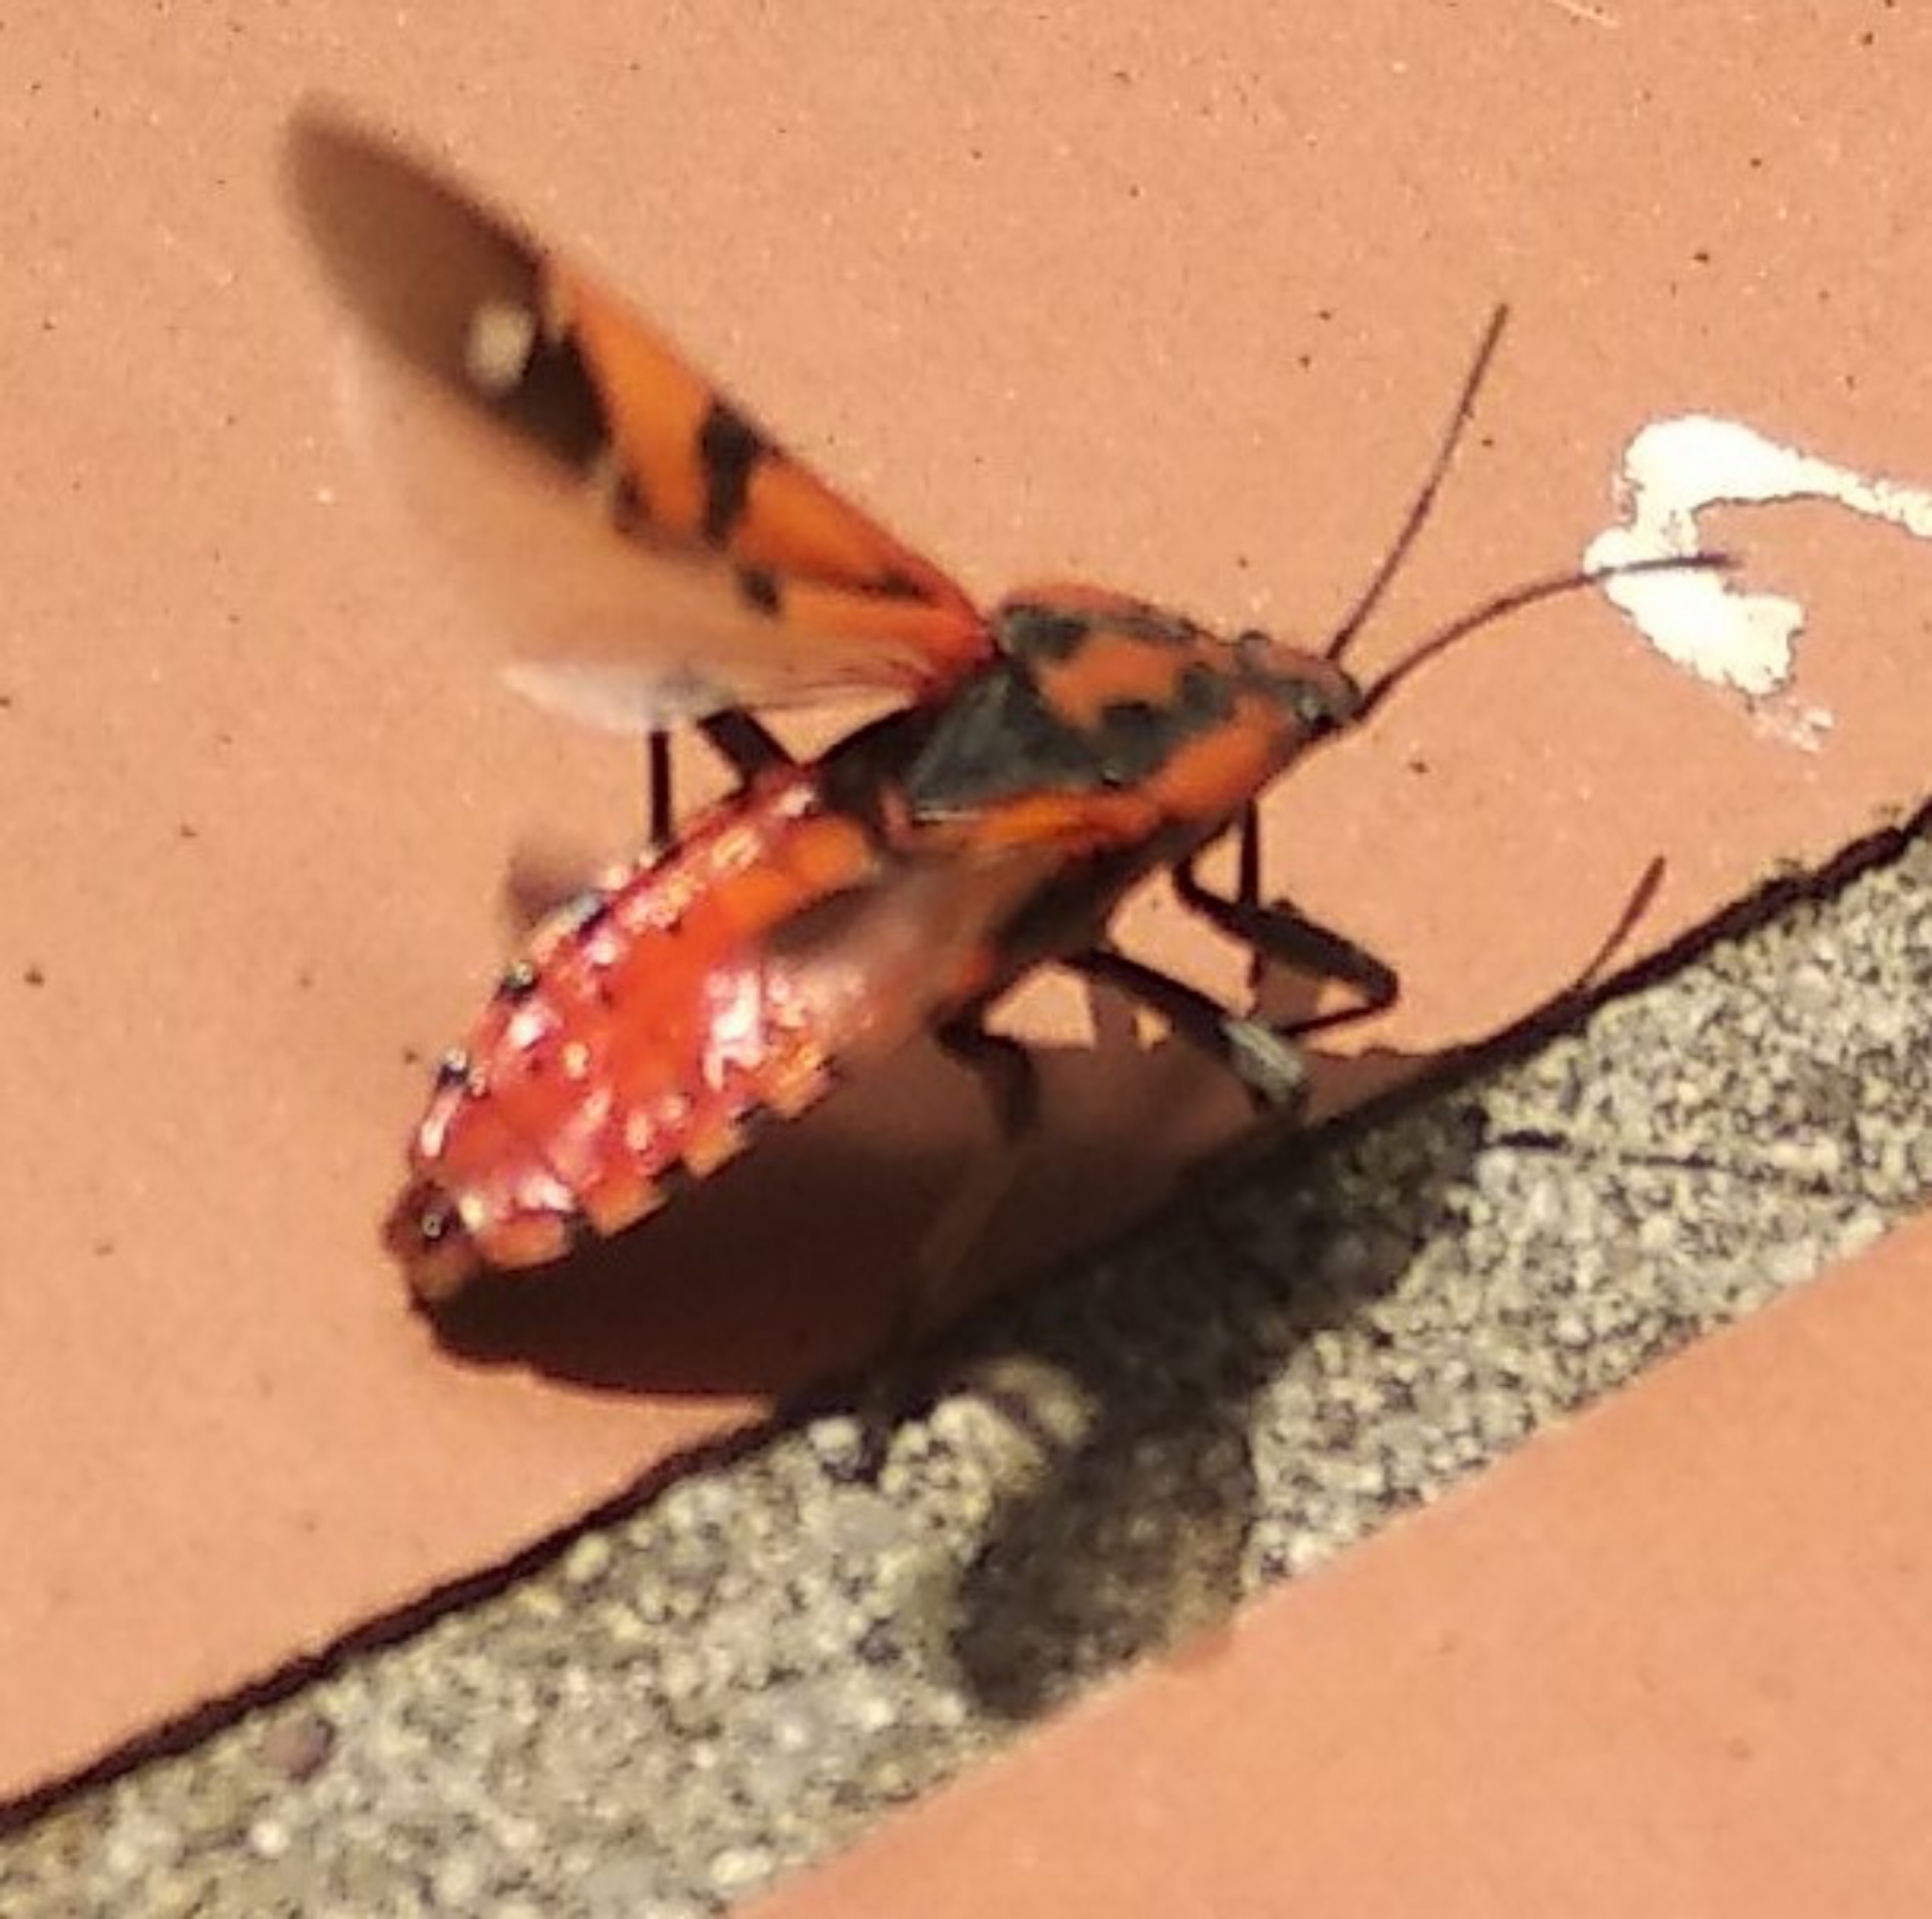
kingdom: Animalia
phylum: Arthropoda
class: Insecta
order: Hemiptera
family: Lygaeidae
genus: Spilostethus
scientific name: Spilostethus pandurus
